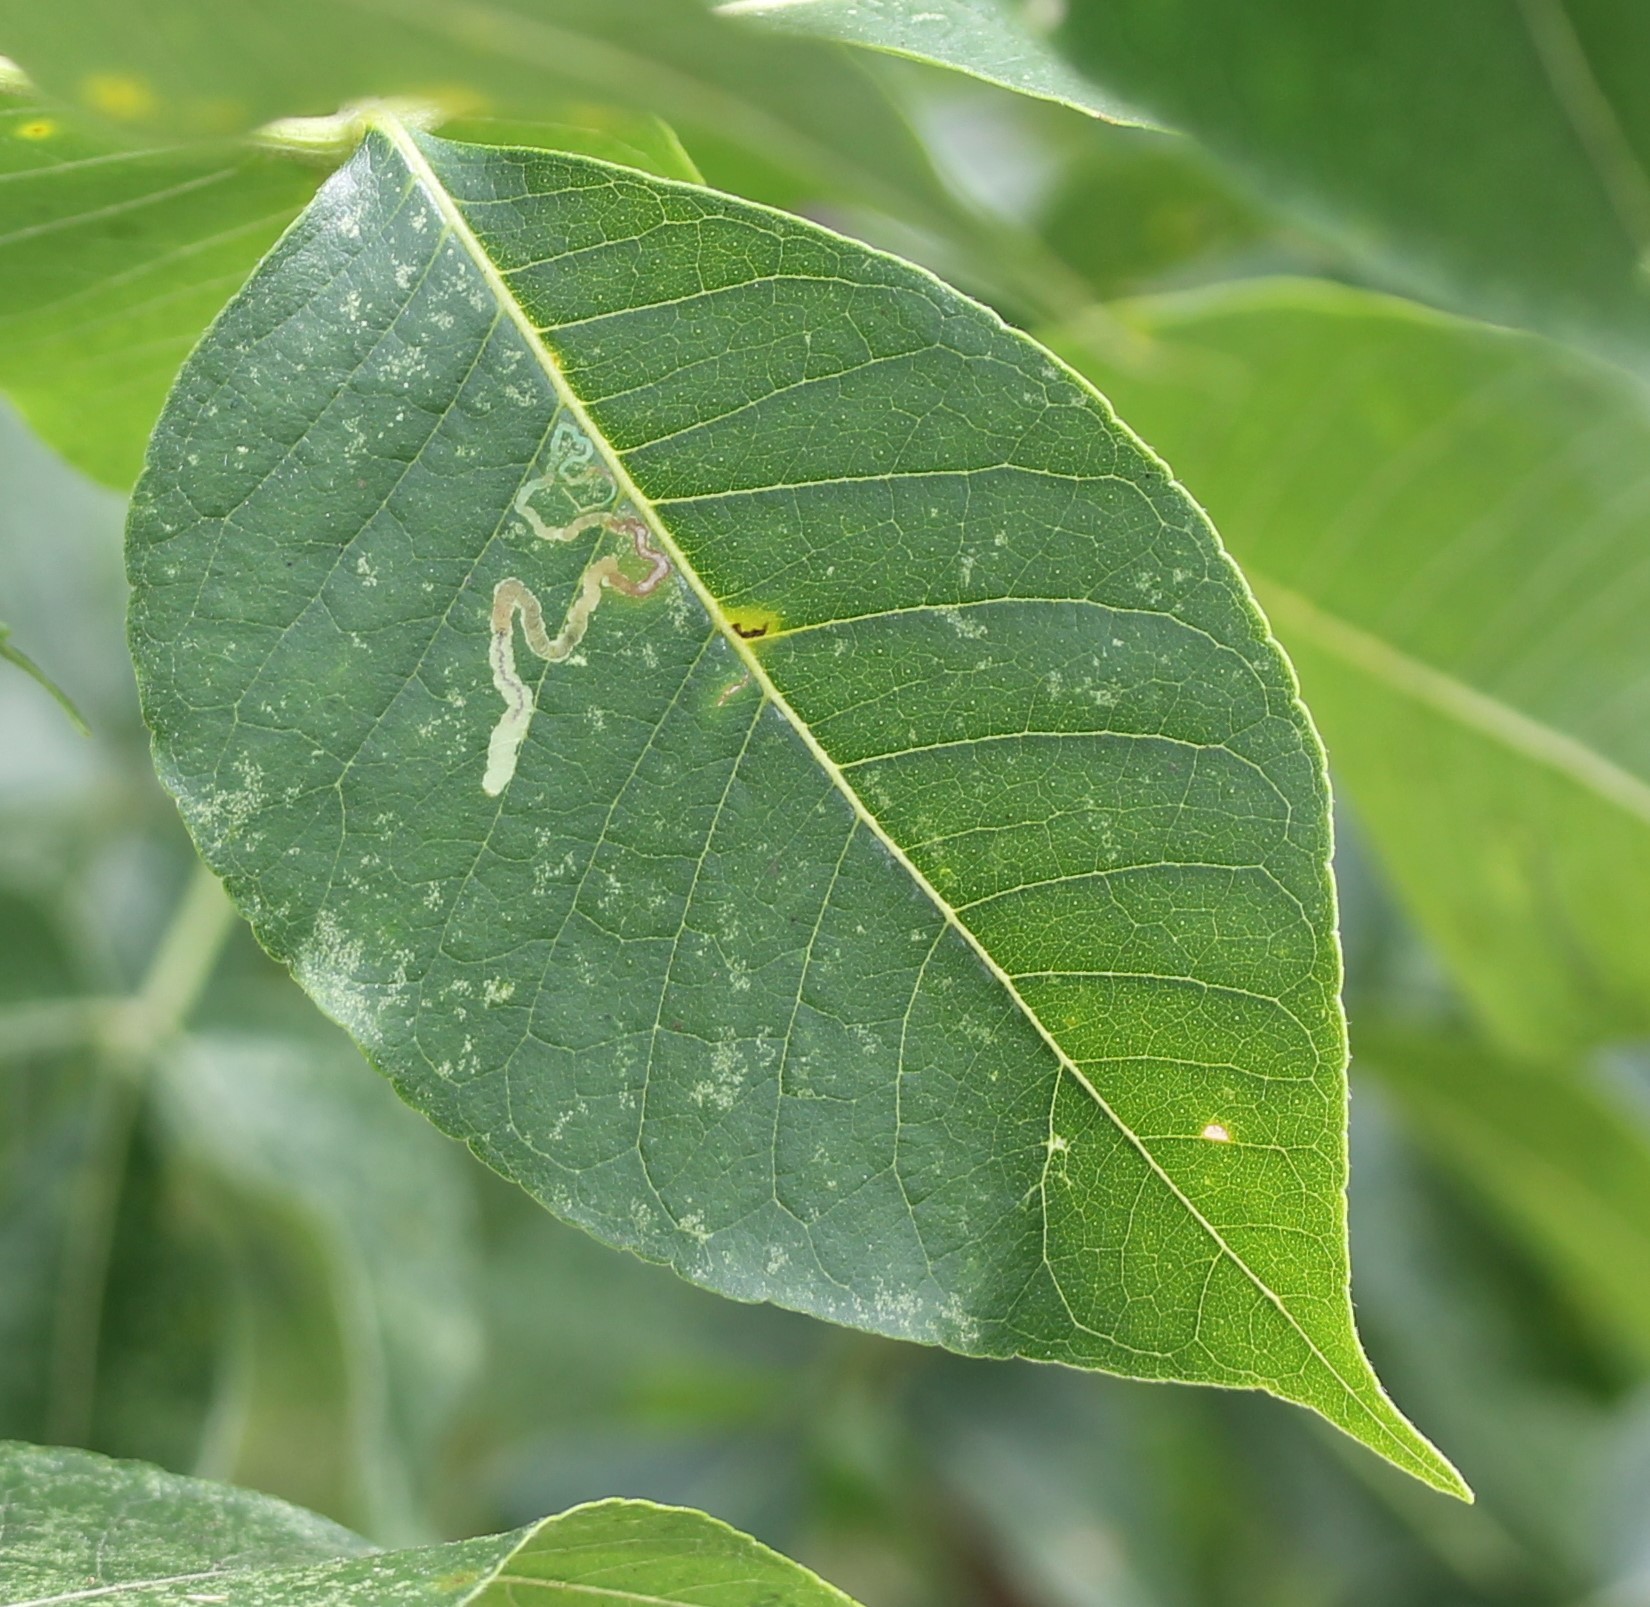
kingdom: Animalia
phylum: Arthropoda
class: Insecta
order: Lepidoptera
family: Nepticulidae
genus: Fomoria
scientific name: Fomoria pteliaeella
